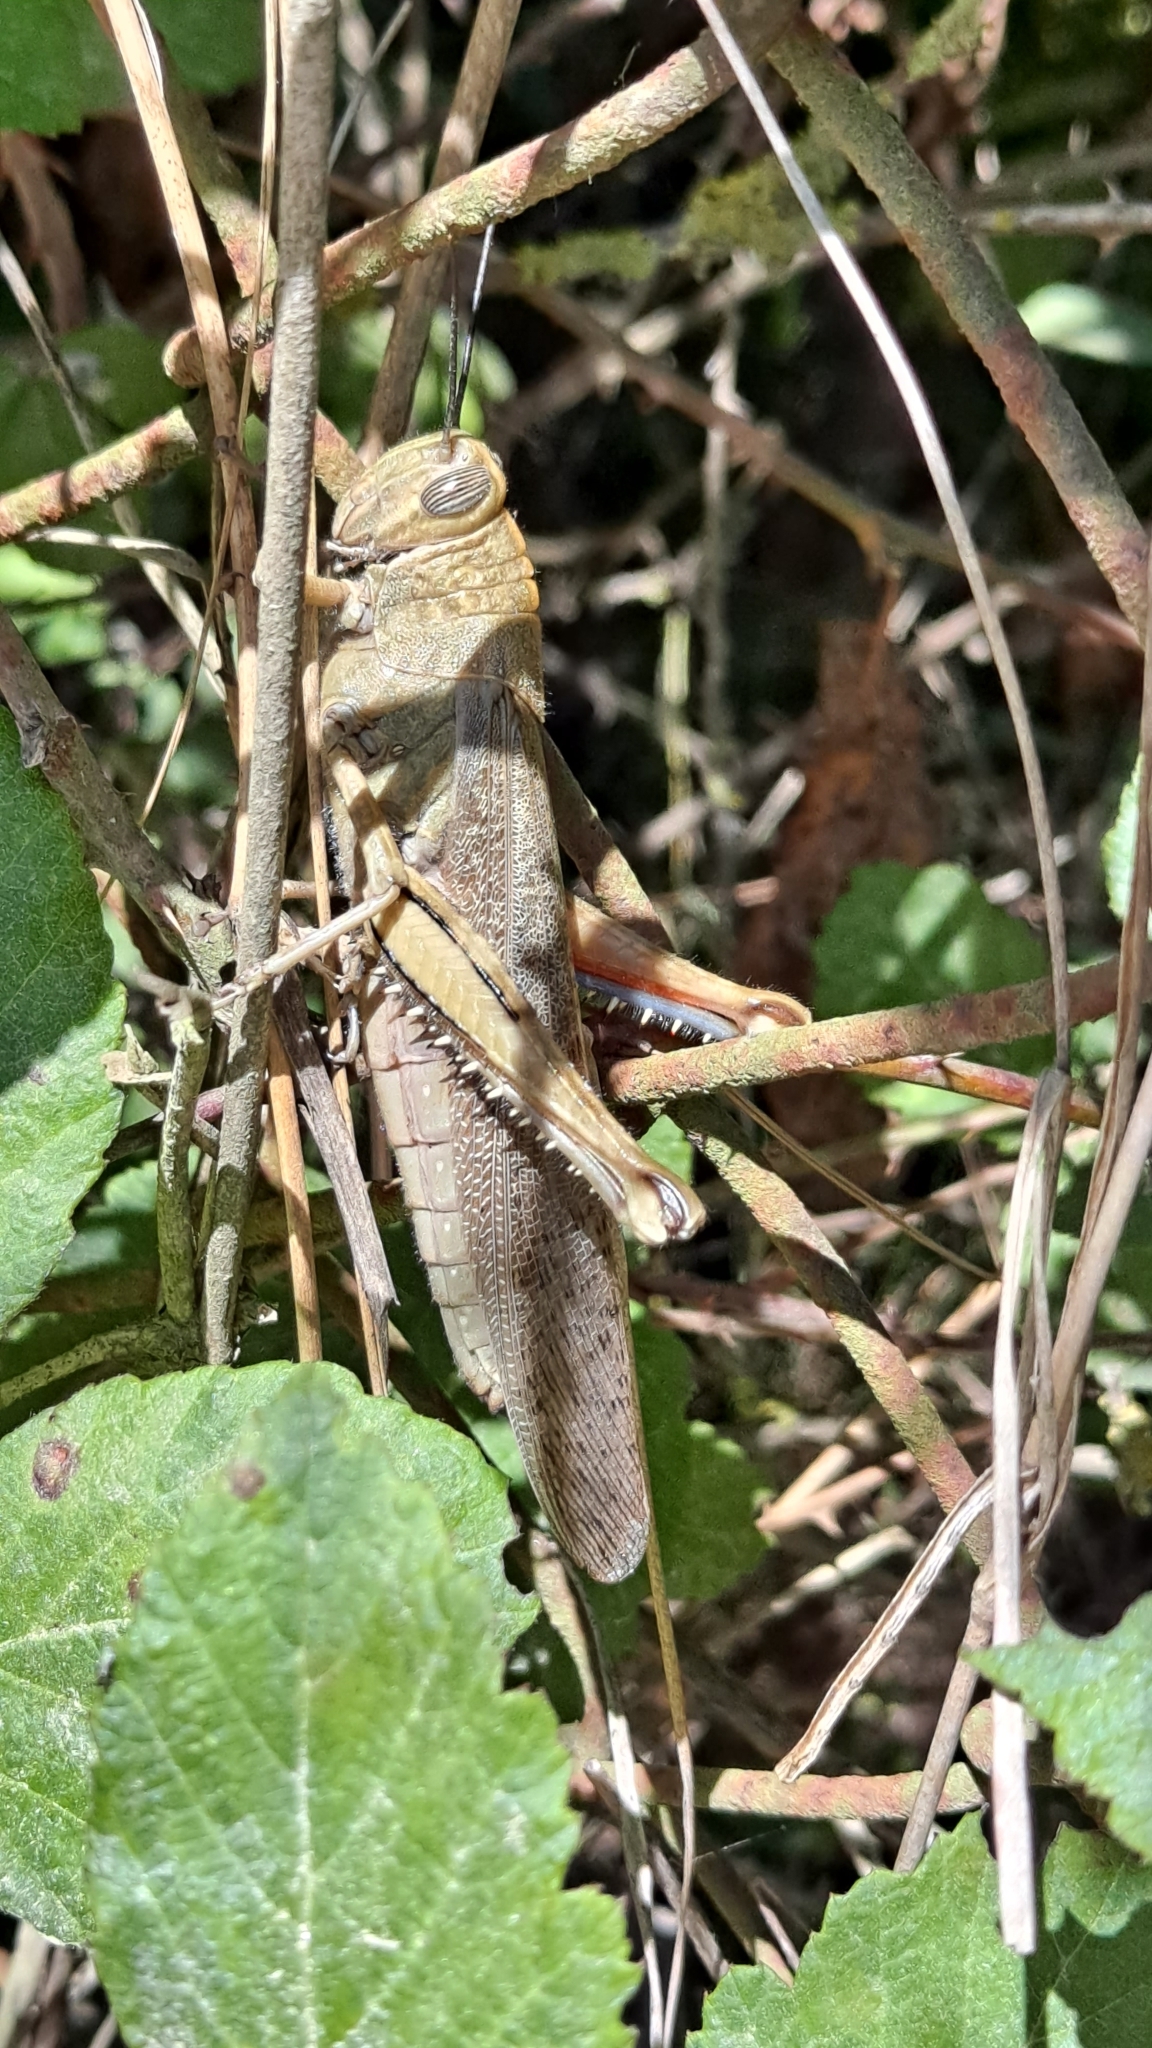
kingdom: Animalia
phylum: Arthropoda
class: Insecta
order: Orthoptera
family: Acrididae
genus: Anacridium
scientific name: Anacridium aegyptium
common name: Egyptian grasshopper
